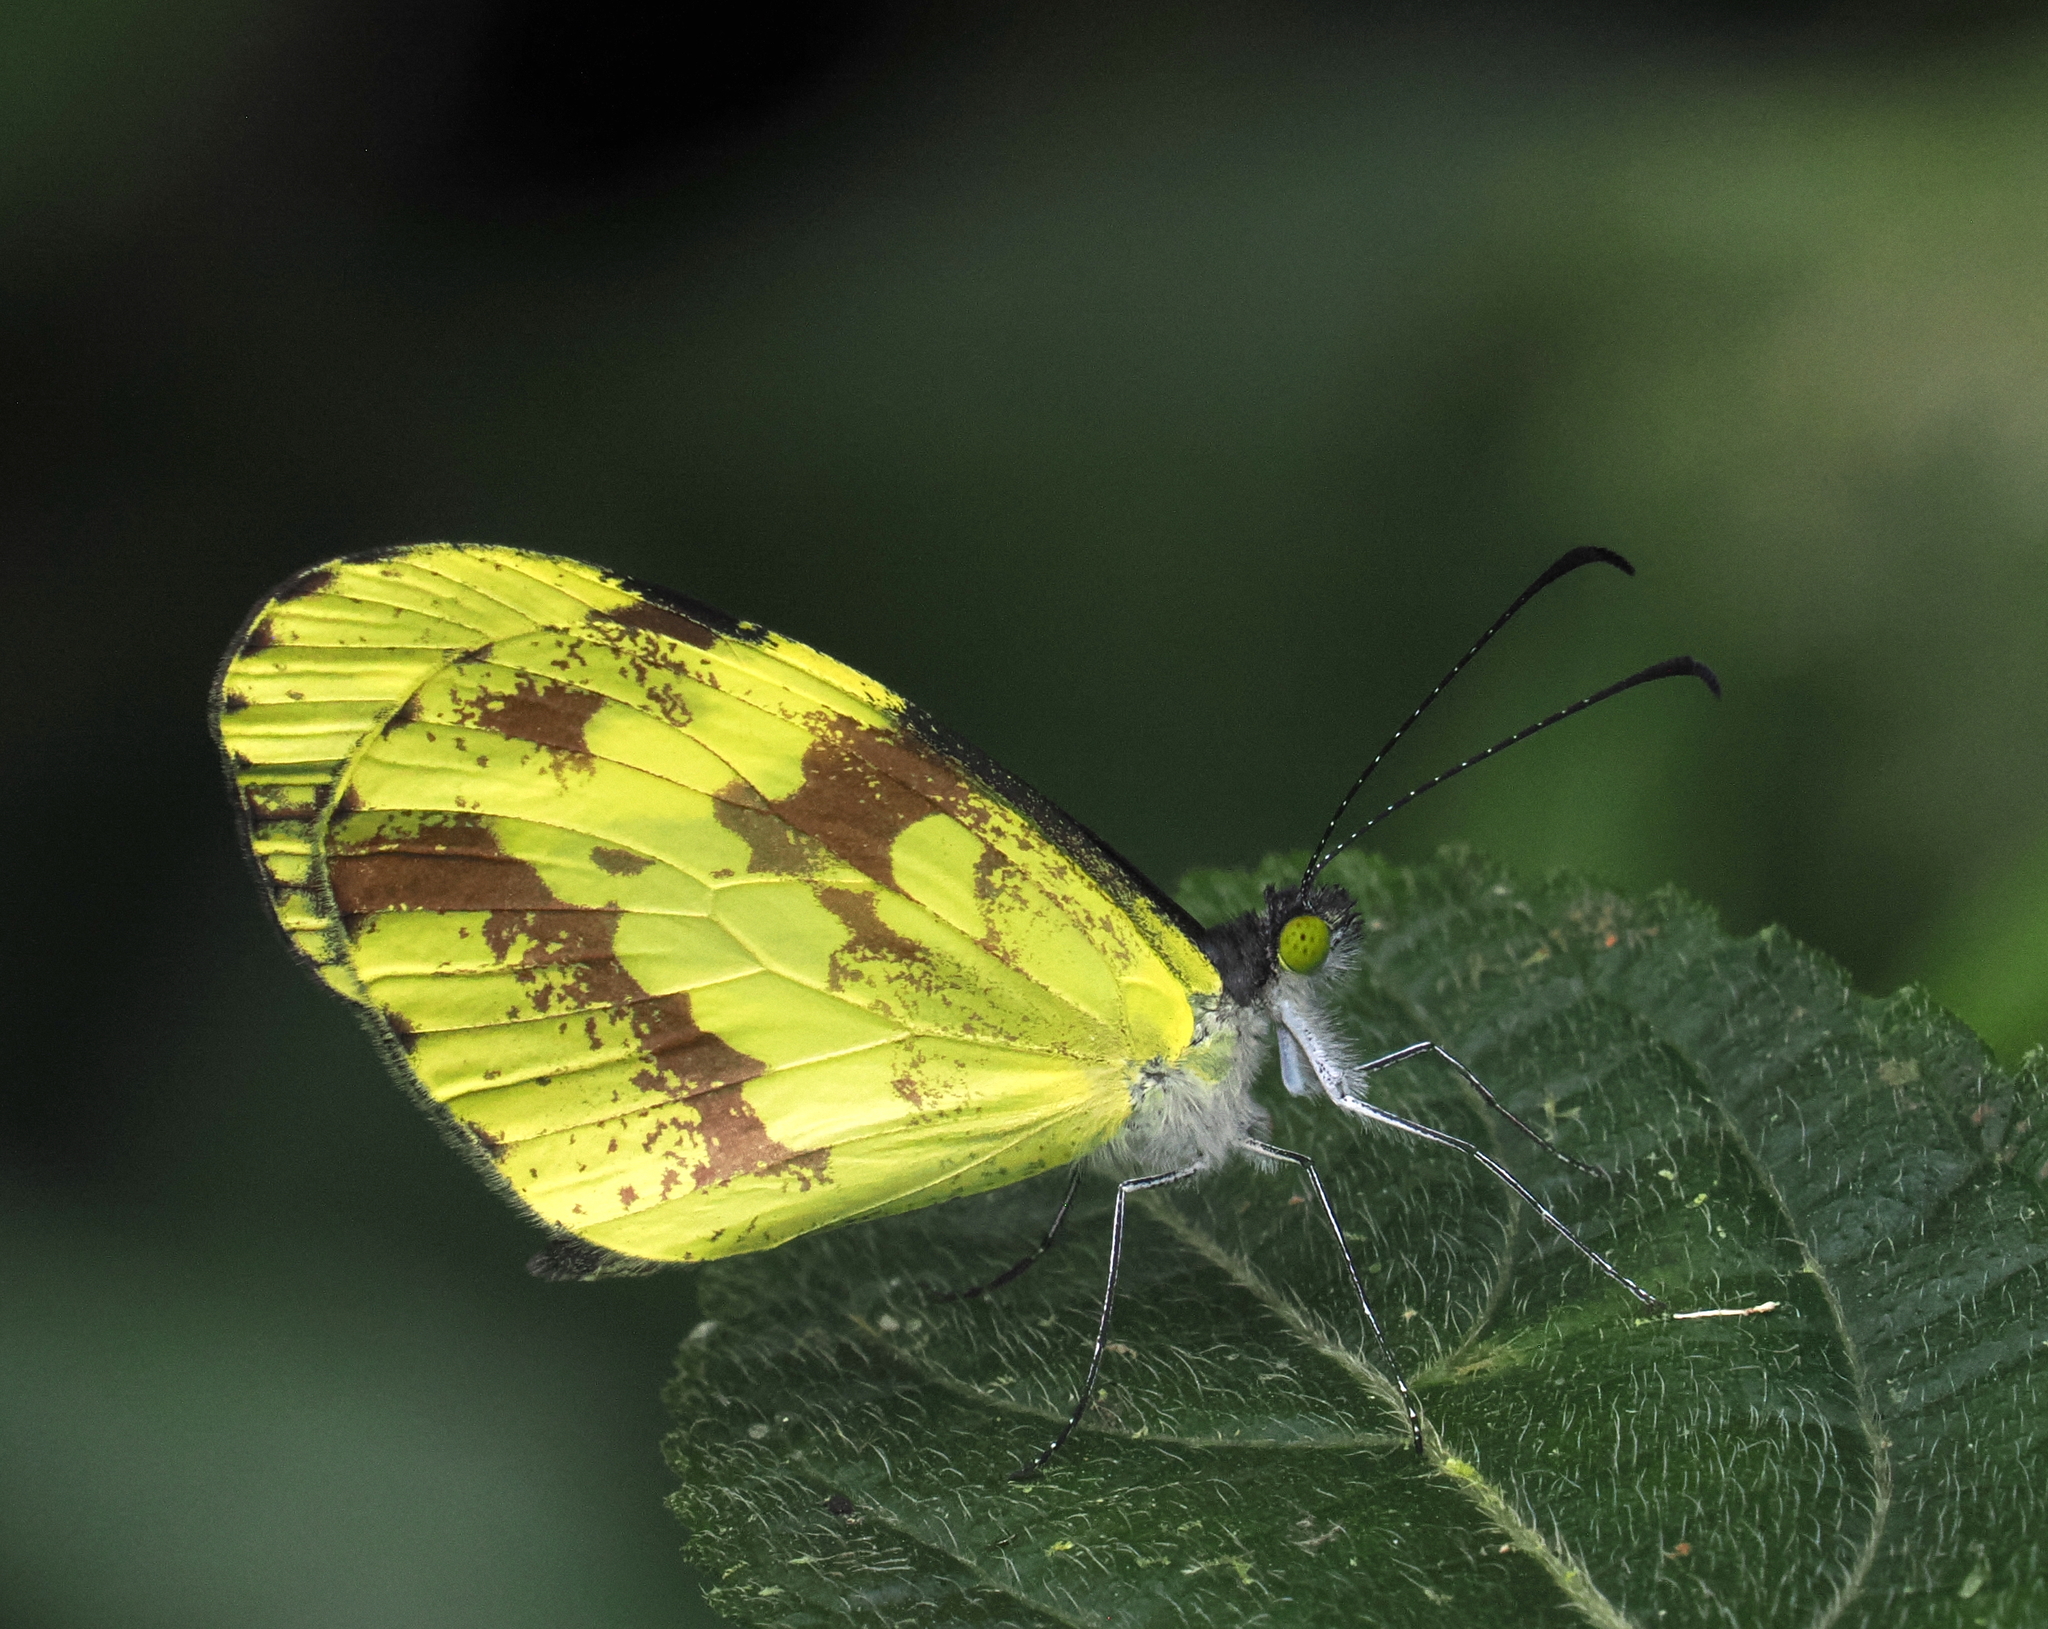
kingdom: Animalia
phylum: Arthropoda
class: Insecta
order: Lepidoptera
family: Pieridae
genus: Dismorphia
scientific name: Dismorphia medora
